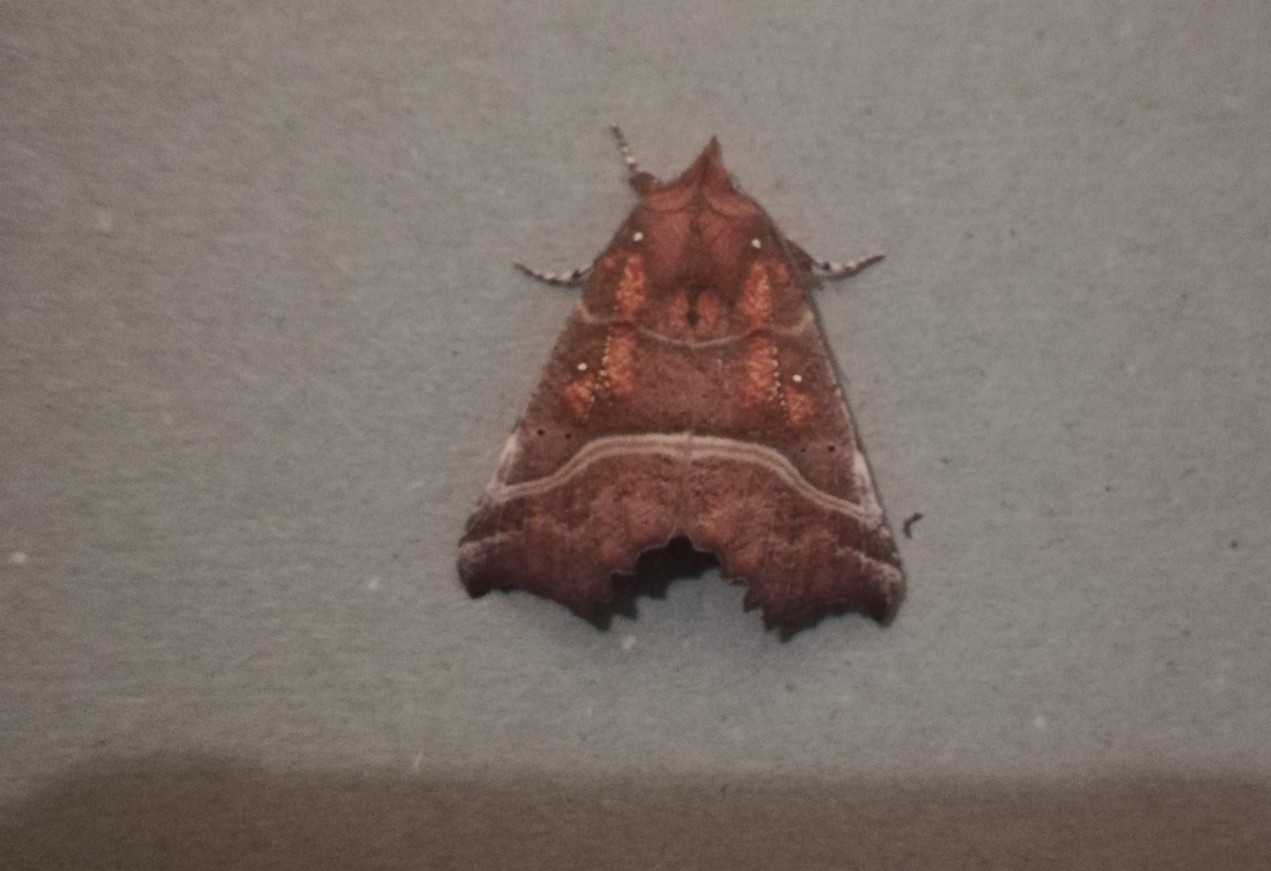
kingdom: Animalia
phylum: Arthropoda
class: Insecta
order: Lepidoptera
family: Erebidae
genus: Scoliopteryx
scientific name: Scoliopteryx libatrix
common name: Herald
